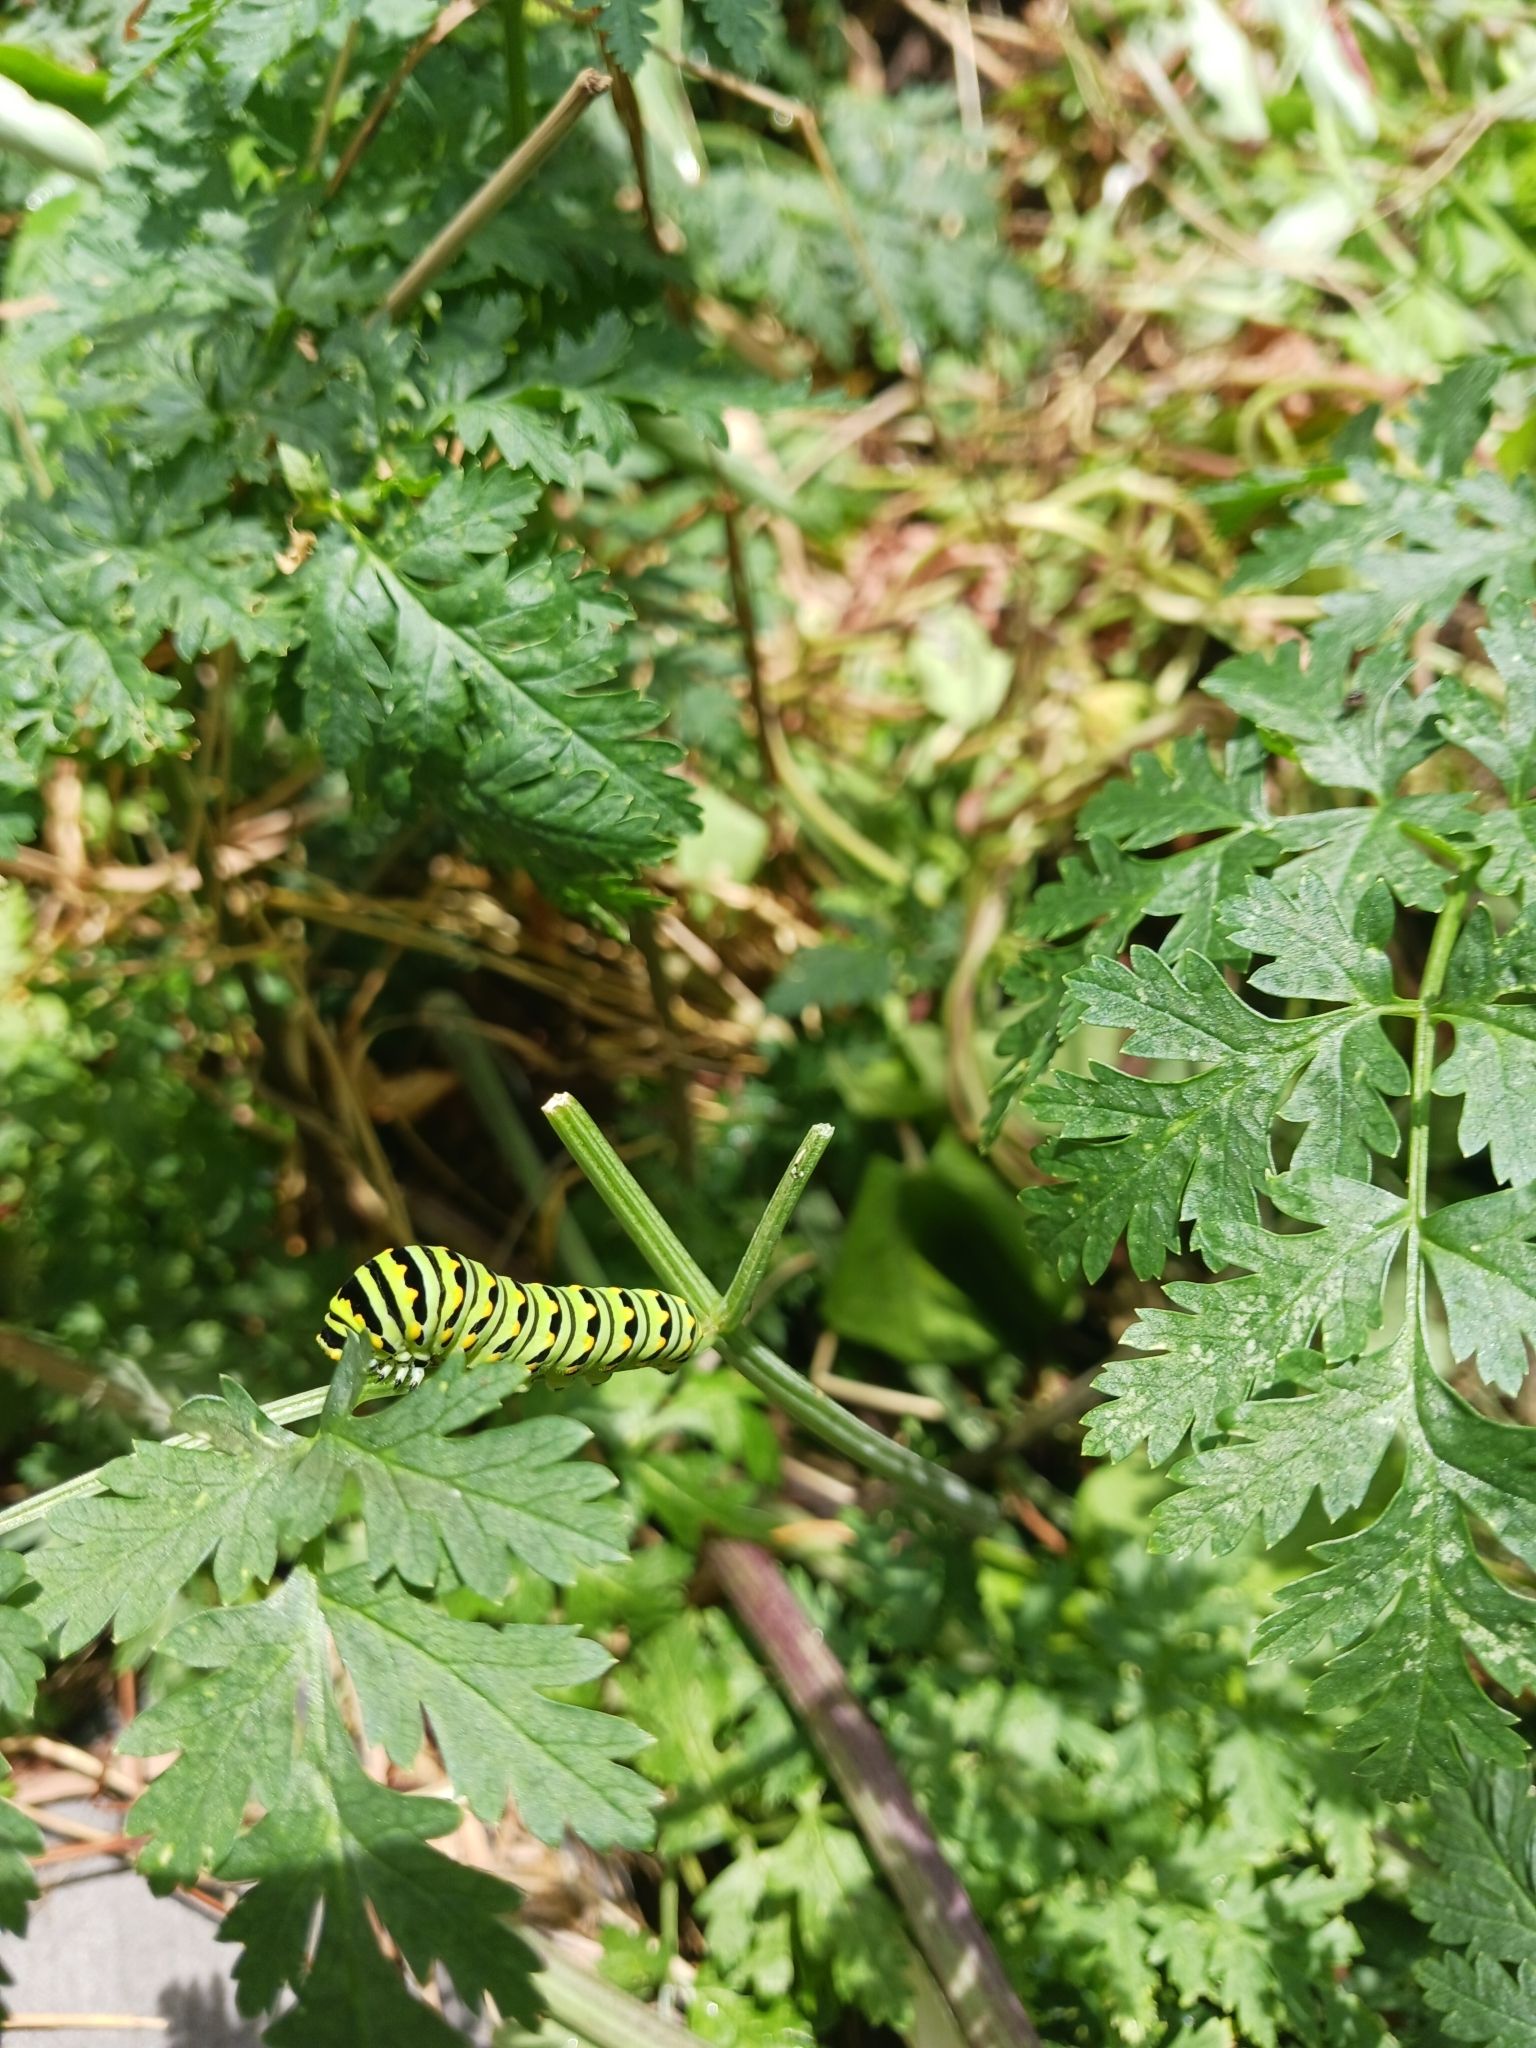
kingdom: Animalia
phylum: Arthropoda
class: Insecta
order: Lepidoptera
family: Papilionidae
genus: Papilio
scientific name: Papilio polyxenes
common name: Black swallowtail
